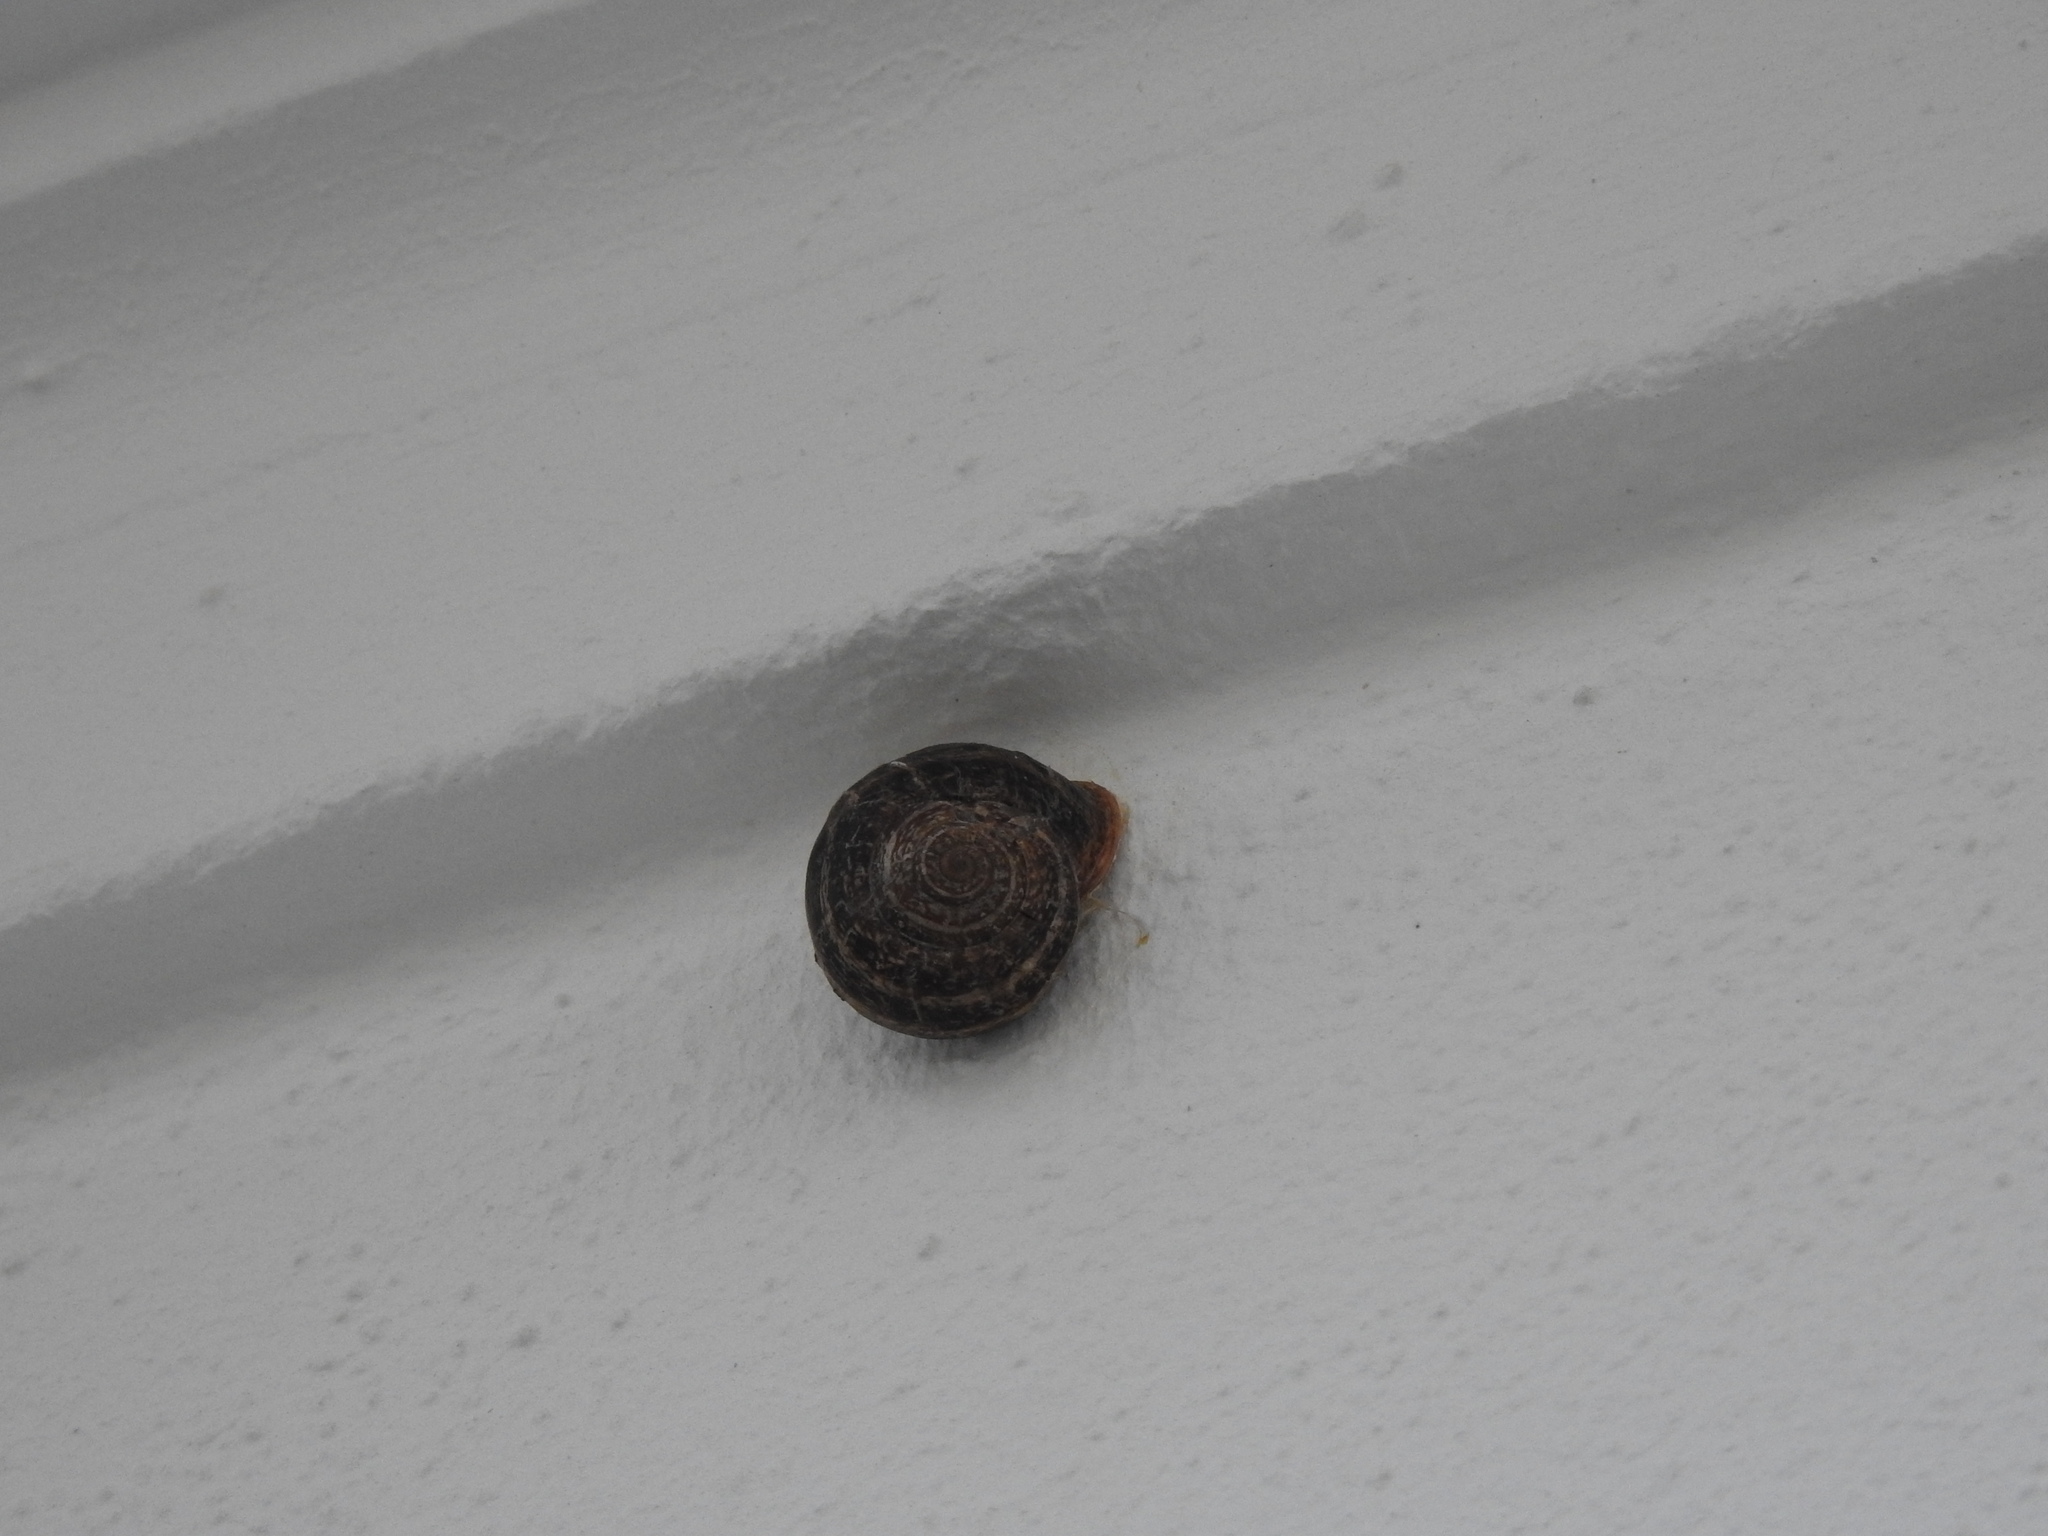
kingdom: Animalia
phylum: Mollusca
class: Gastropoda
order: Stylommatophora
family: Helicidae
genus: Otala
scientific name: Otala lactea
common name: Milk snail
